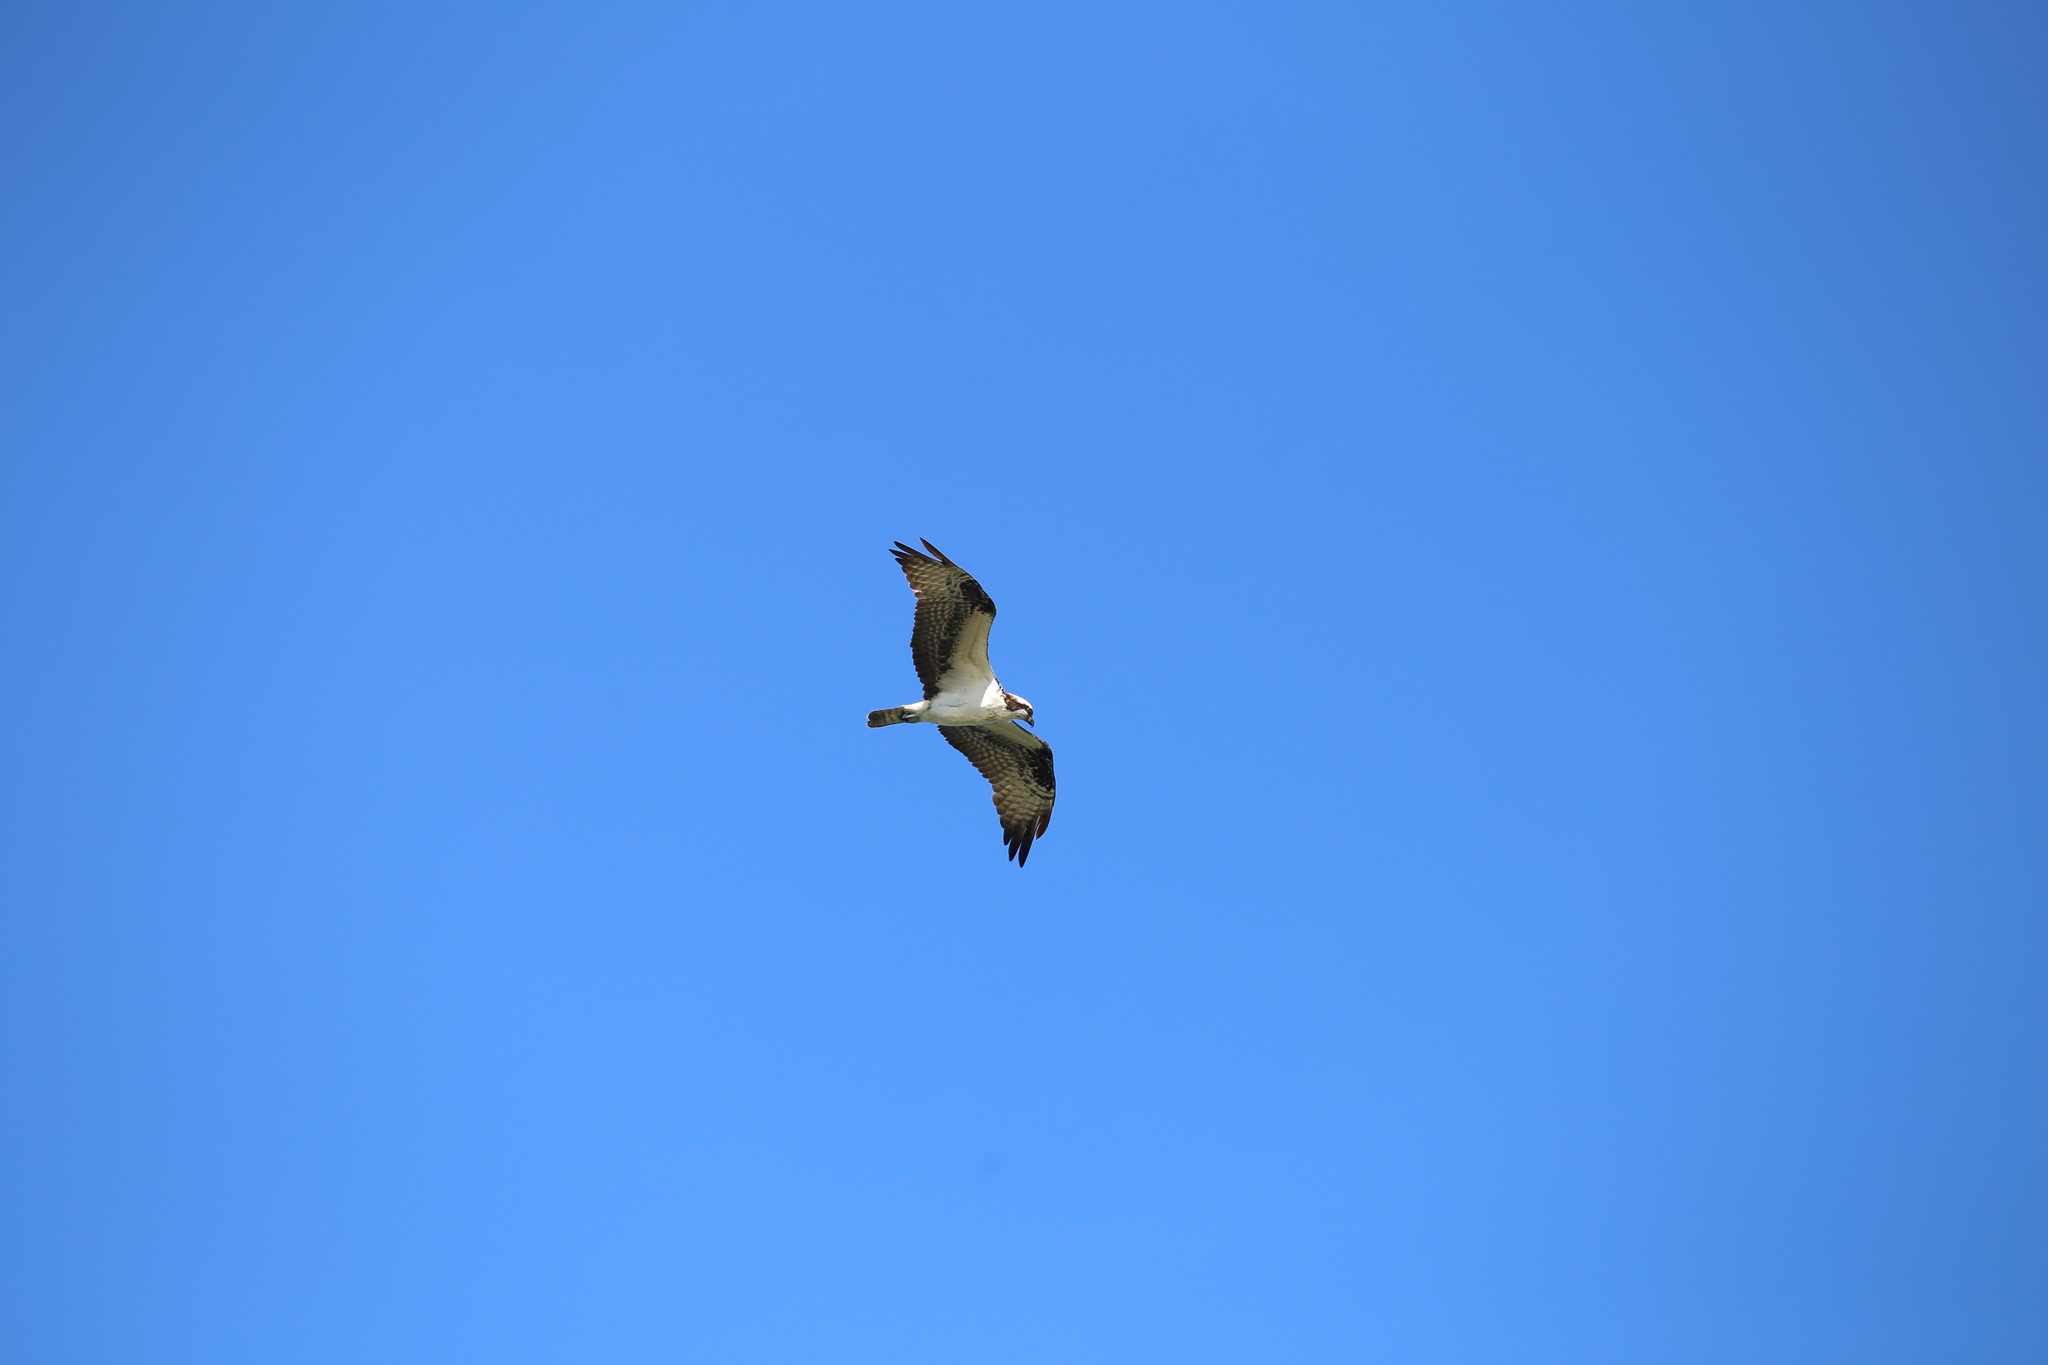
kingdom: Animalia
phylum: Chordata
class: Aves
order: Accipitriformes
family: Pandionidae
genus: Pandion
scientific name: Pandion haliaetus
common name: Osprey
